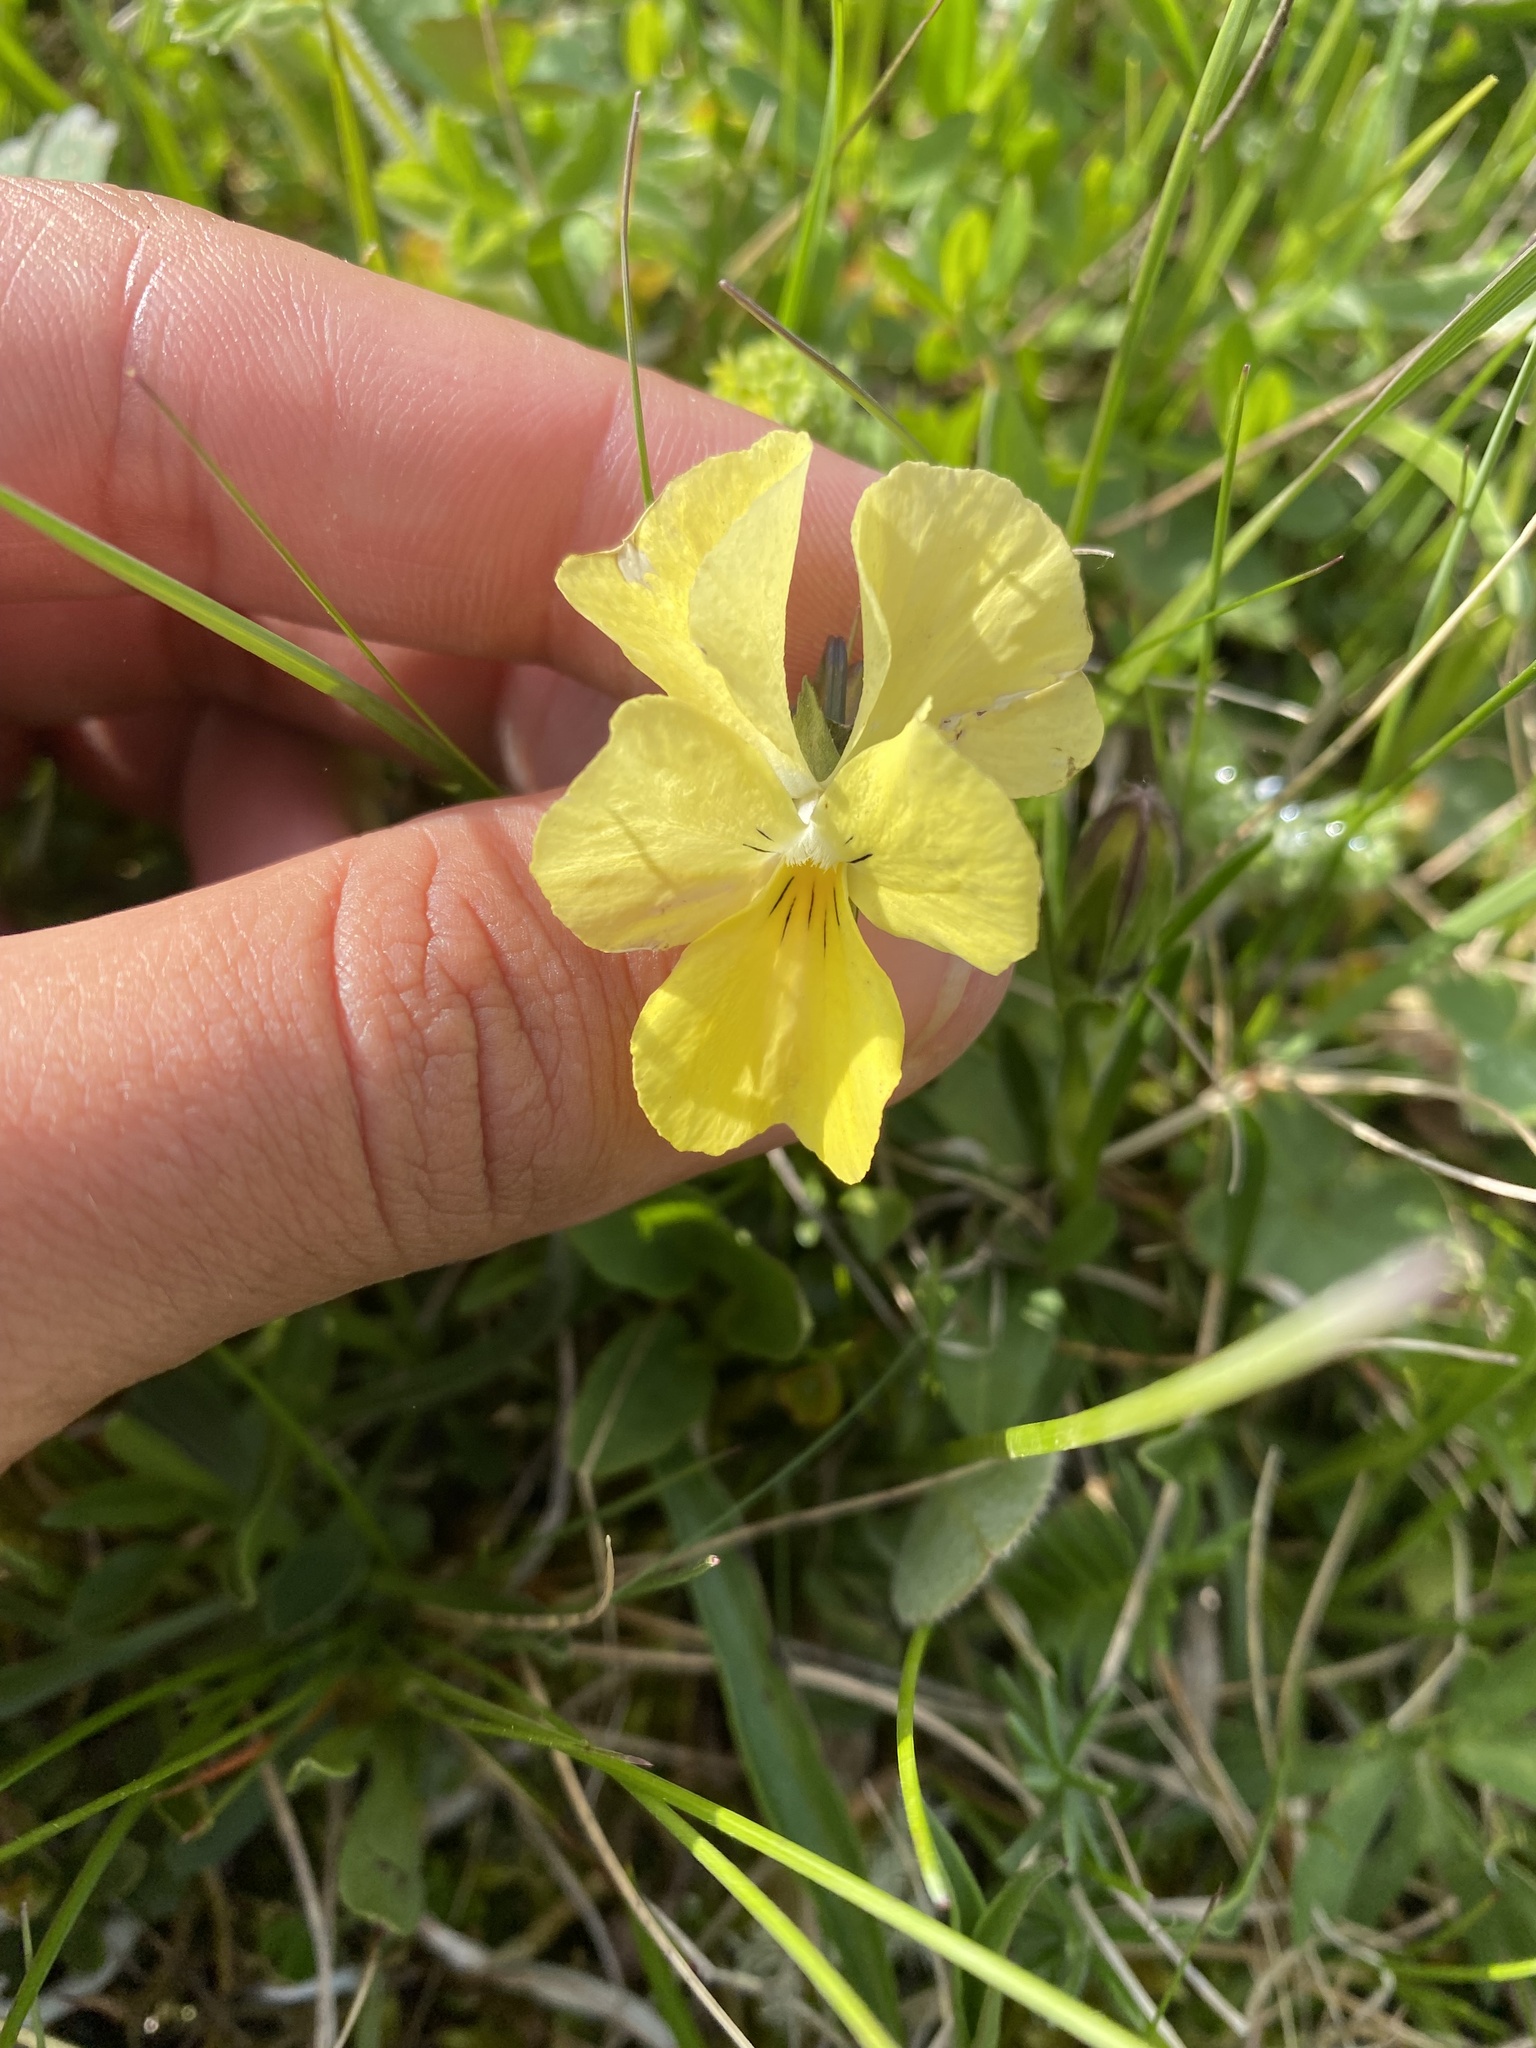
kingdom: Plantae
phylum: Tracheophyta
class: Magnoliopsida
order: Malpighiales
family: Violaceae
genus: Viola
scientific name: Viola oreades
